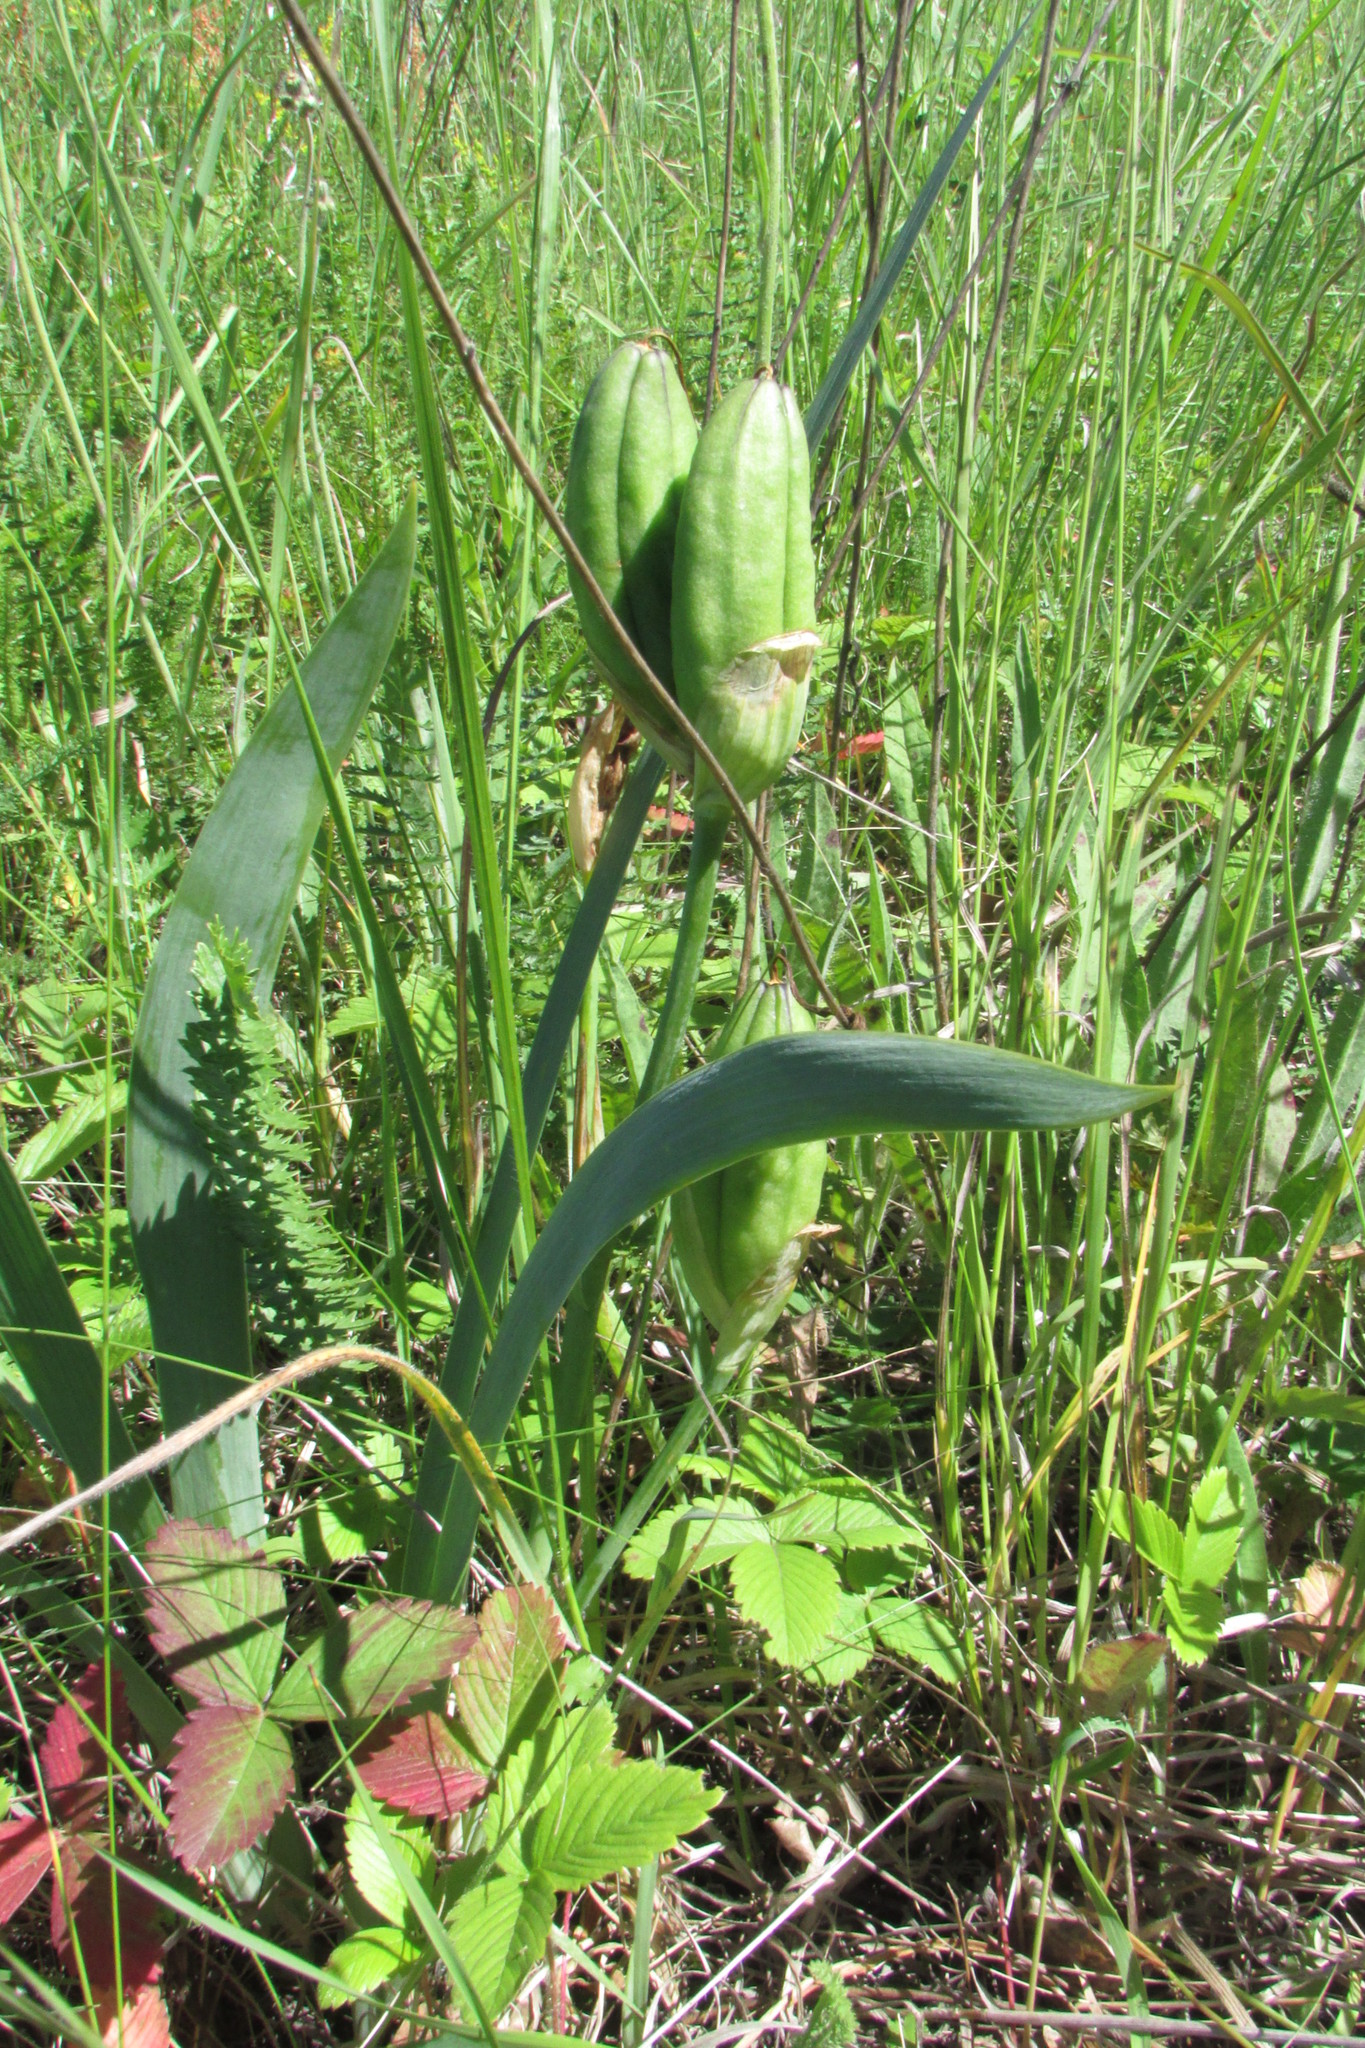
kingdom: Plantae
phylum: Tracheophyta
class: Liliopsida
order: Asparagales
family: Iridaceae
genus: Iris
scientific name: Iris aphylla
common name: Stool iris
